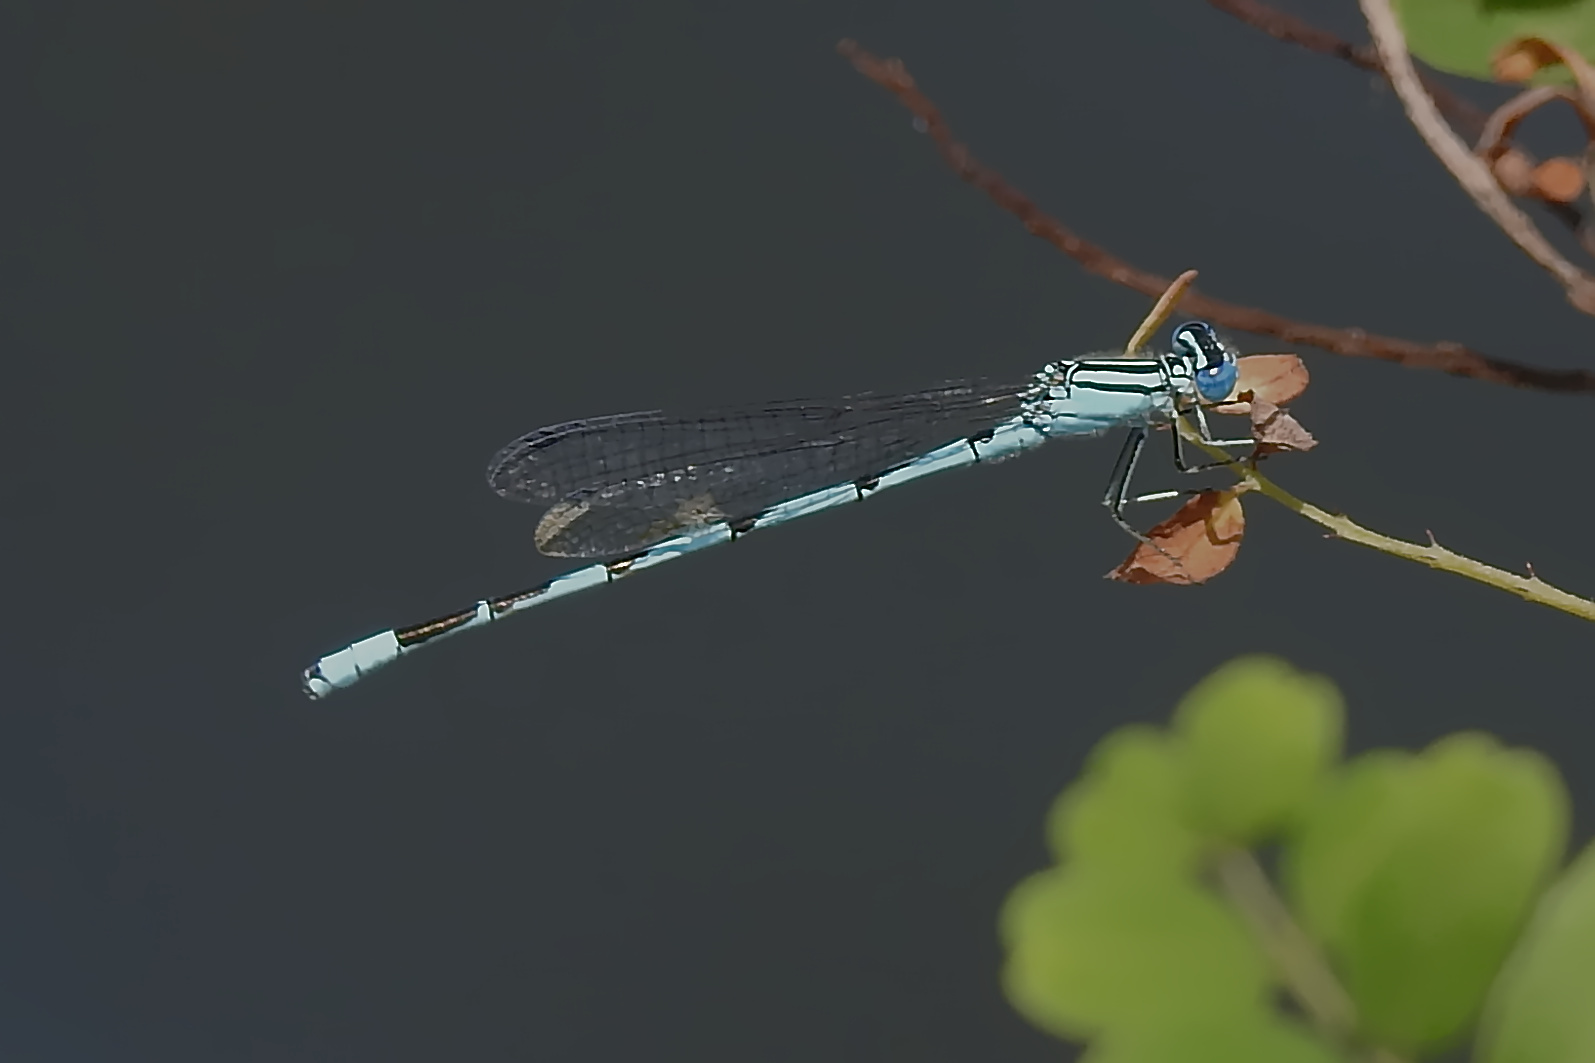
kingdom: Animalia
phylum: Arthropoda
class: Insecta
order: Odonata
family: Coenagrionidae
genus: Enallagma
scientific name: Enallagma durum
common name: Big bluet
